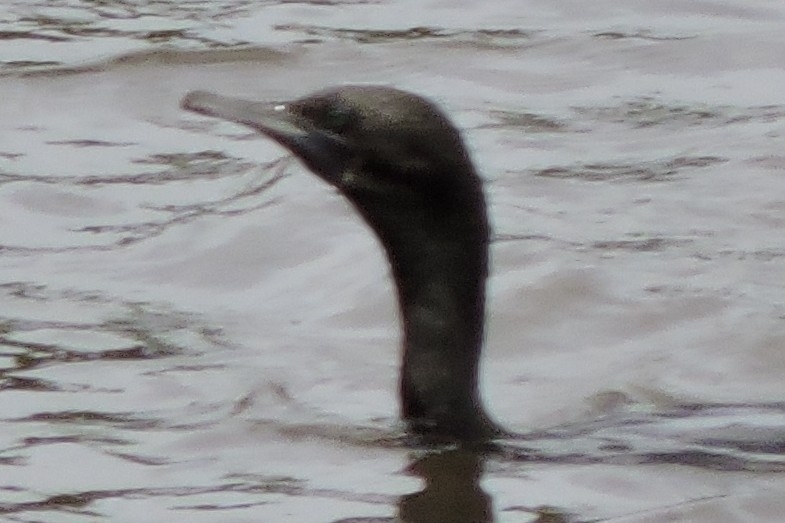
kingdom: Animalia
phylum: Chordata
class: Aves
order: Suliformes
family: Phalacrocoracidae
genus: Phalacrocorax
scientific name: Phalacrocorax sulcirostris
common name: Little black cormorant
